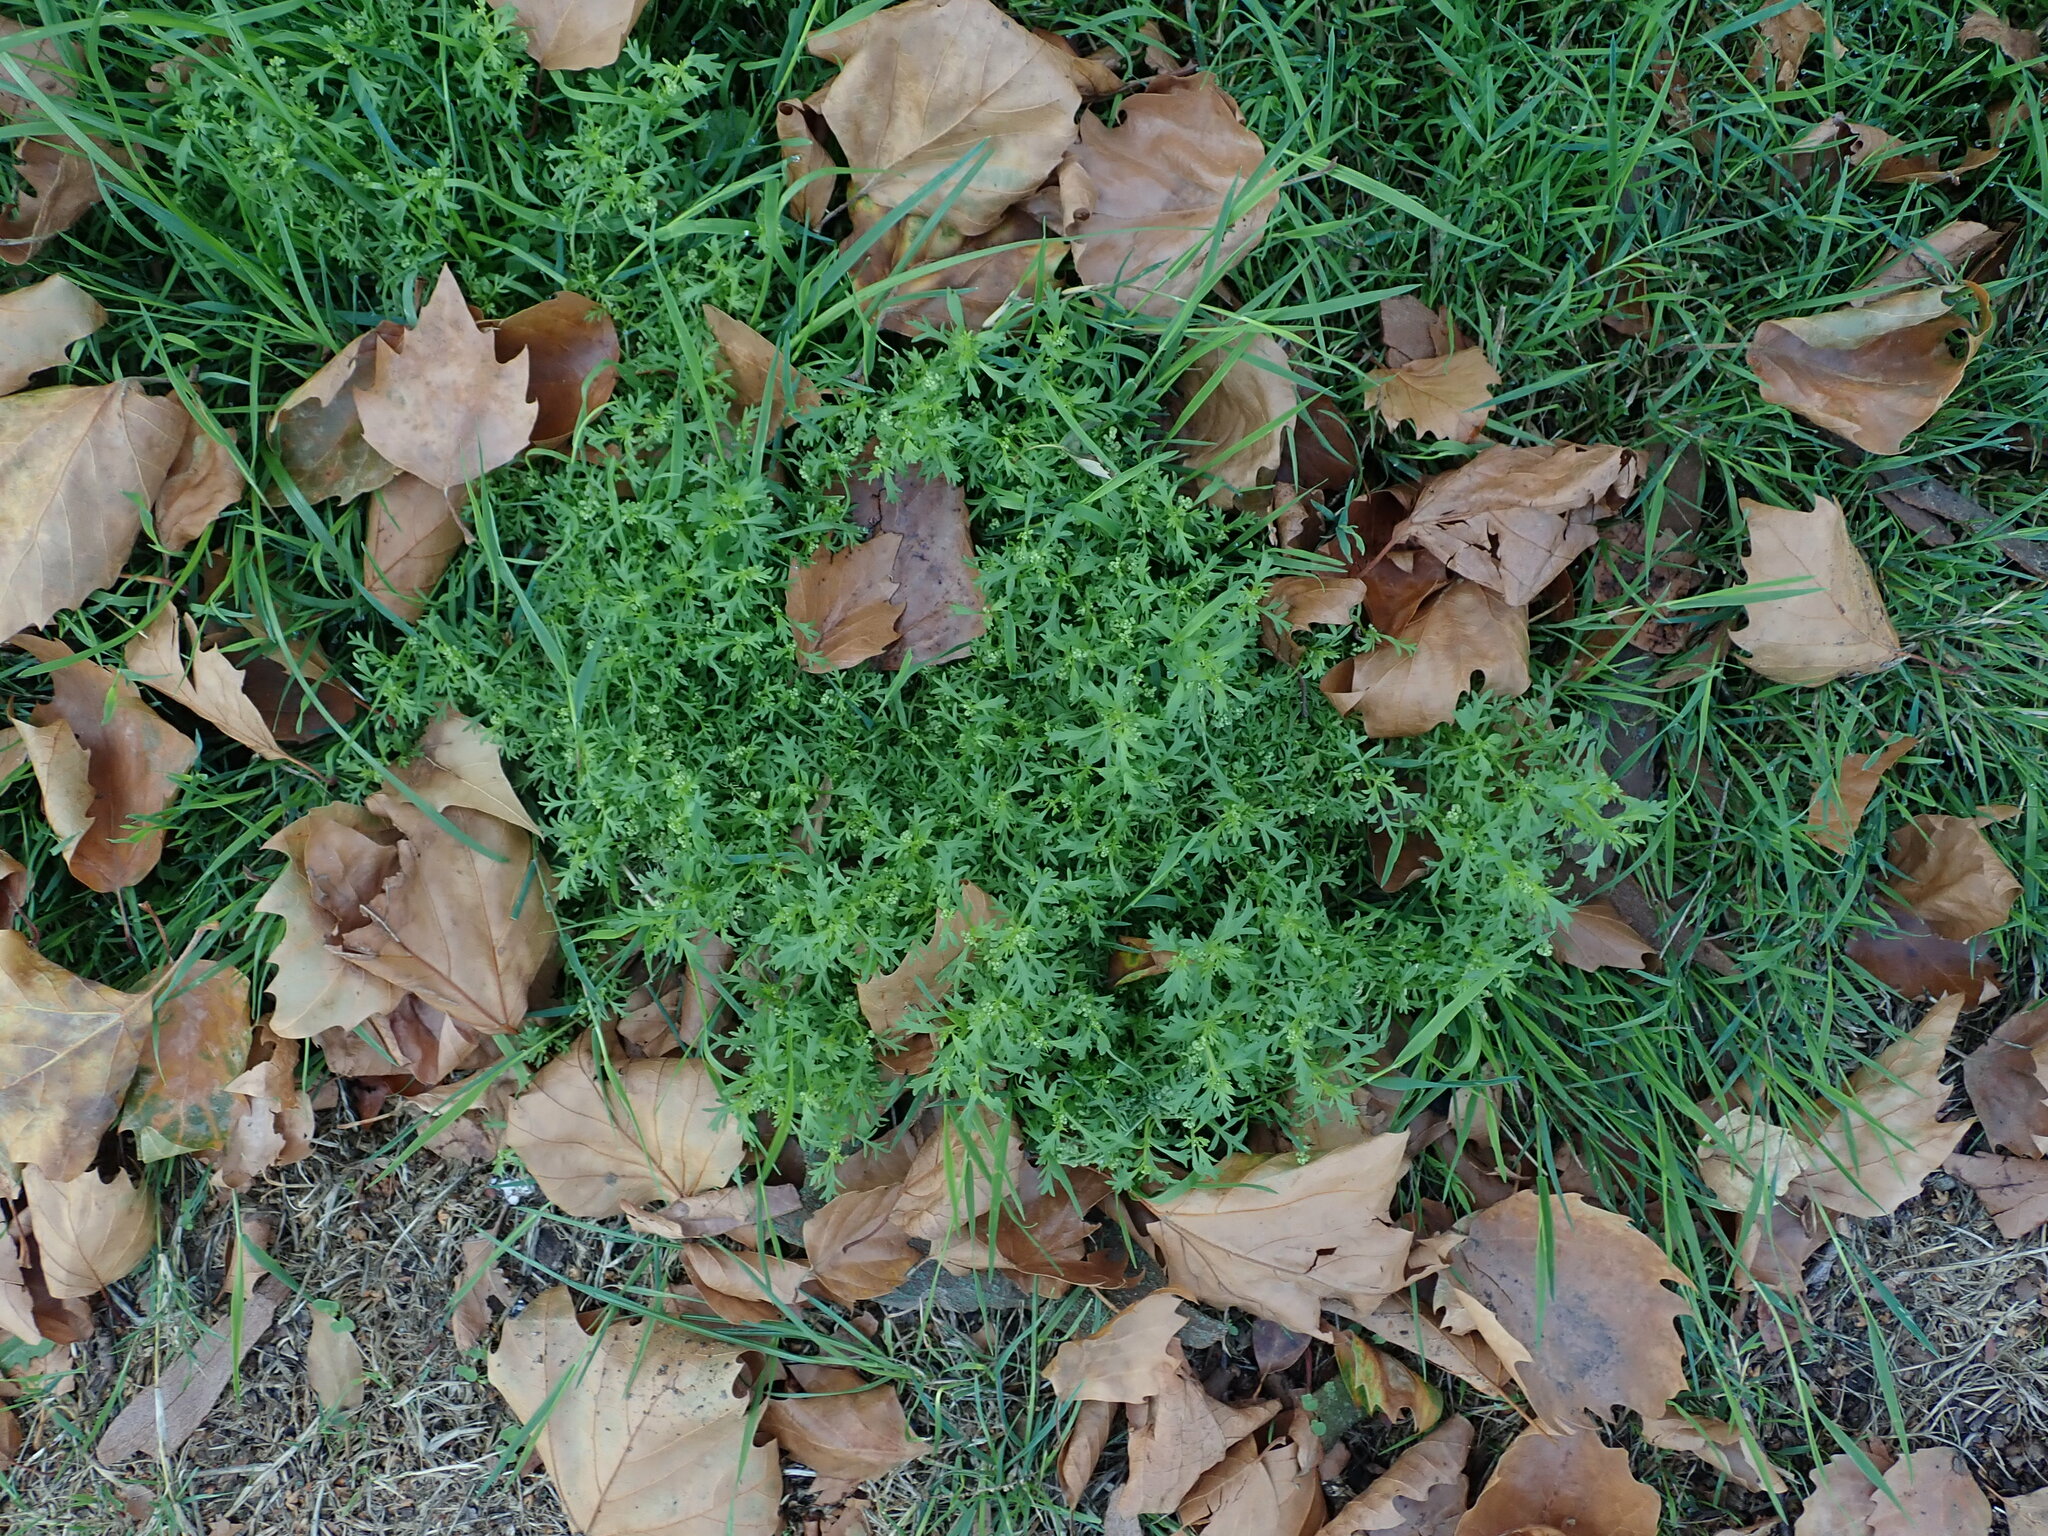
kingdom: Plantae
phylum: Tracheophyta
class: Magnoliopsida
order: Brassicales
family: Brassicaceae
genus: Lepidium
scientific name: Lepidium didymum
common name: Lesser swinecress
